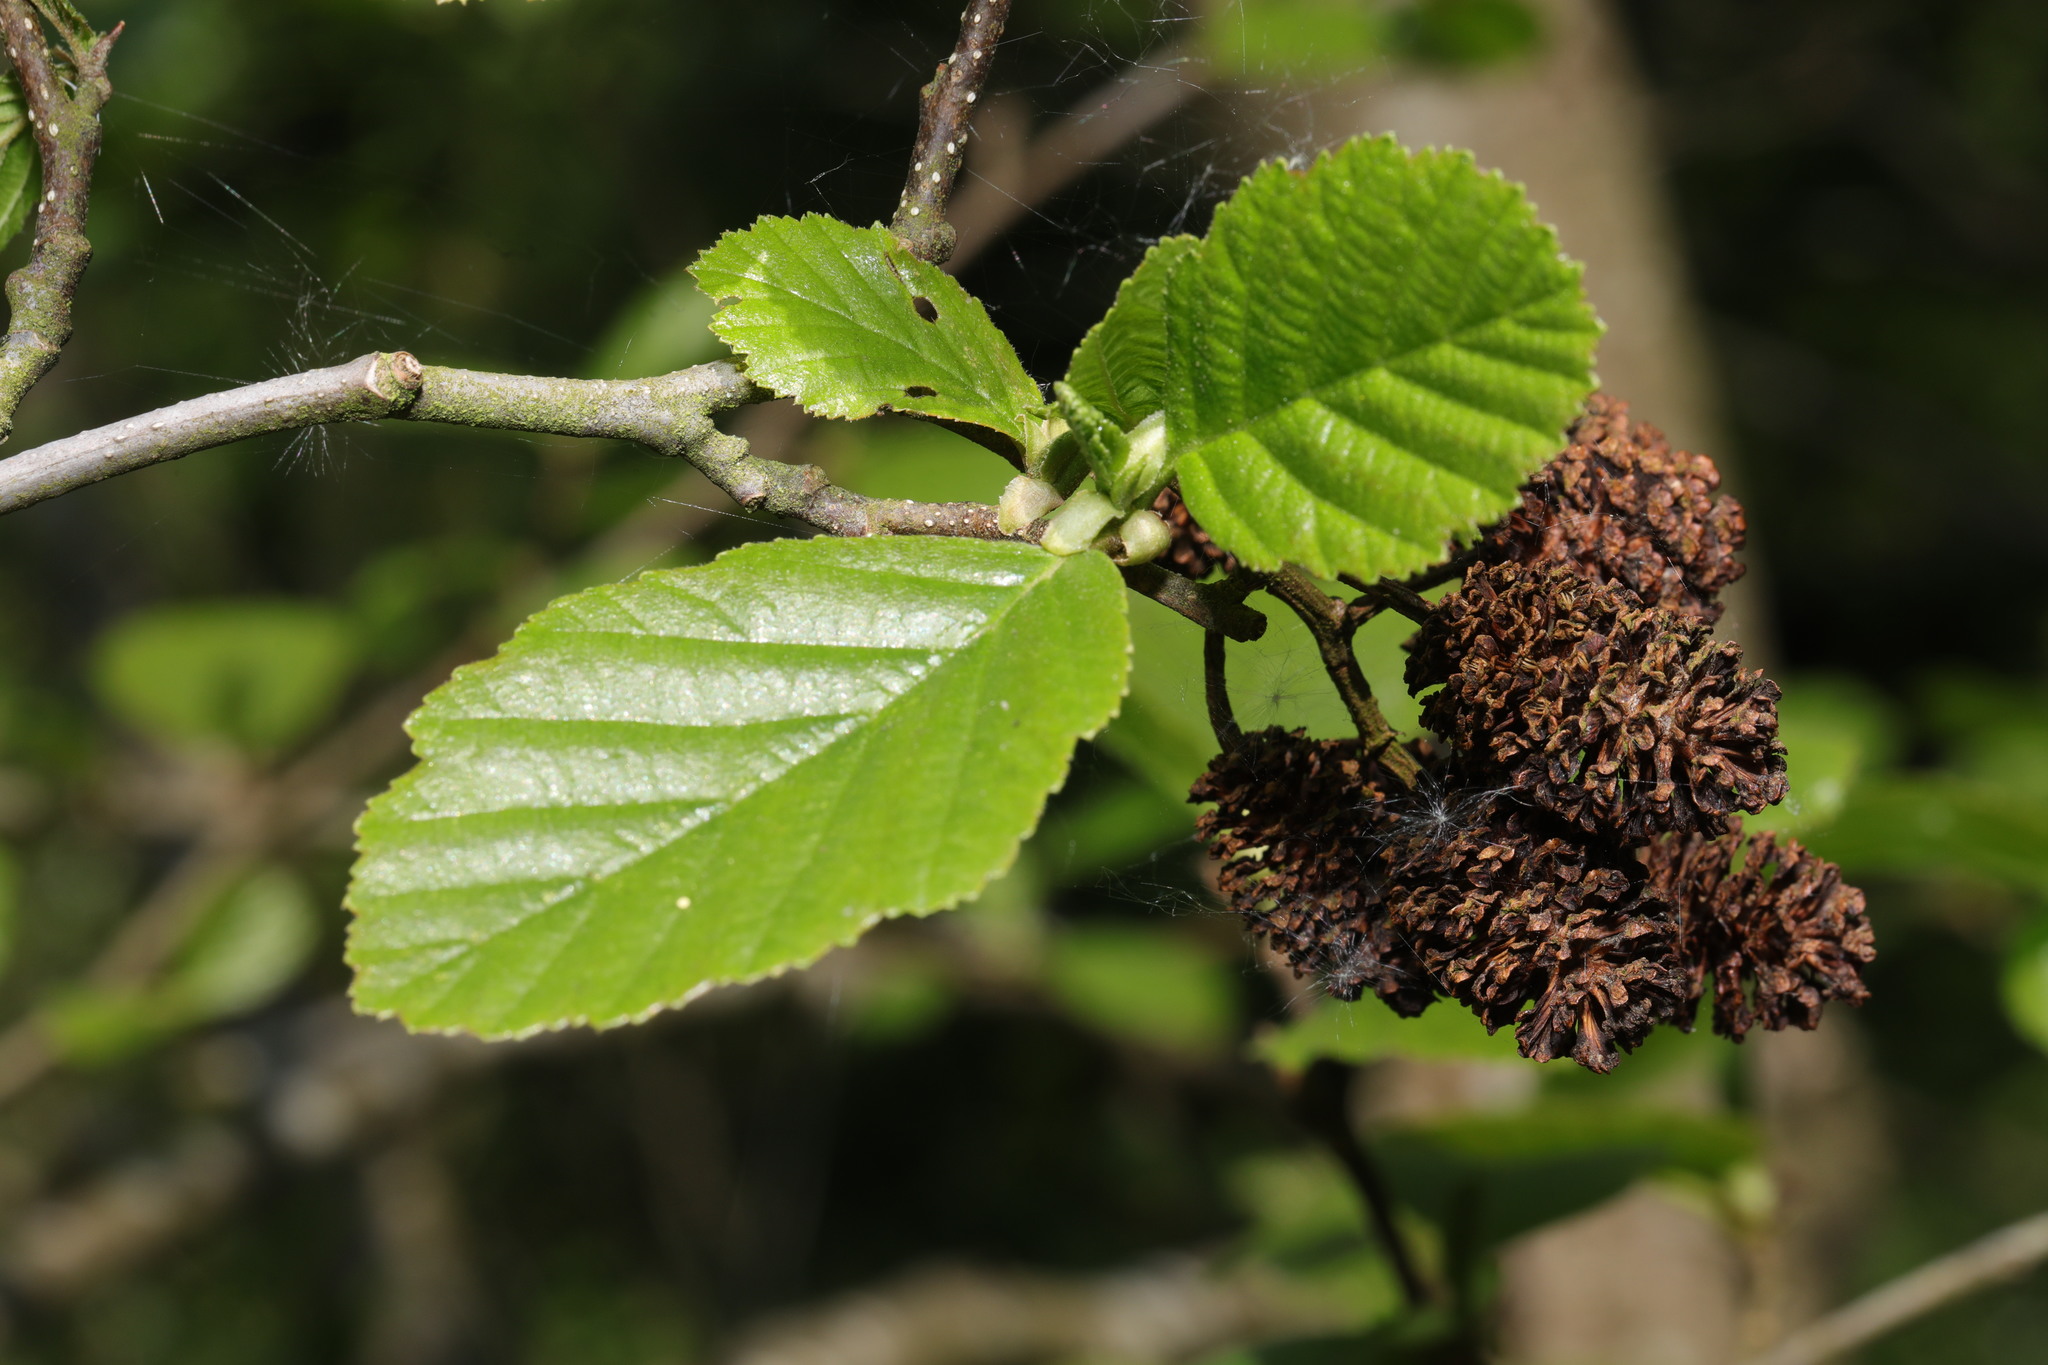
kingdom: Plantae
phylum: Tracheophyta
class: Magnoliopsida
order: Fagales
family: Betulaceae
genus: Alnus
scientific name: Alnus glutinosa
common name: Black alder
